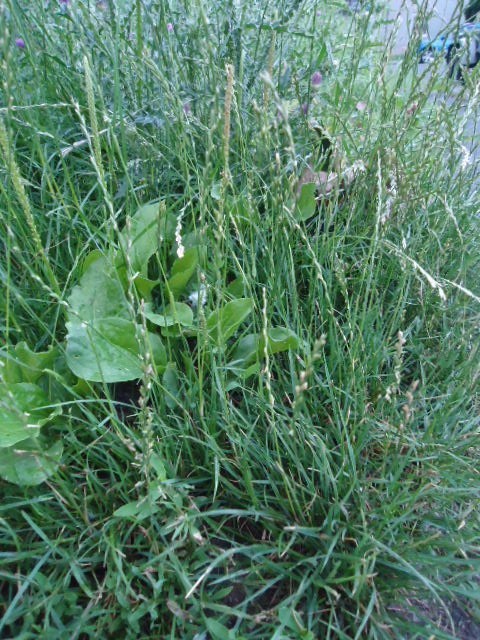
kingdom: Plantae
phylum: Tracheophyta
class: Liliopsida
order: Poales
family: Poaceae
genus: Lolium
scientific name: Lolium perenne
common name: Perennial ryegrass
